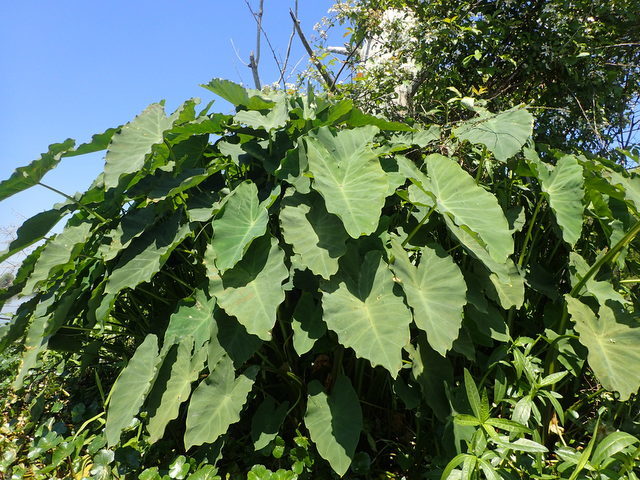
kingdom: Plantae
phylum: Tracheophyta
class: Liliopsida
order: Alismatales
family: Araceae
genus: Colocasia
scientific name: Colocasia esculenta
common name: Taro
